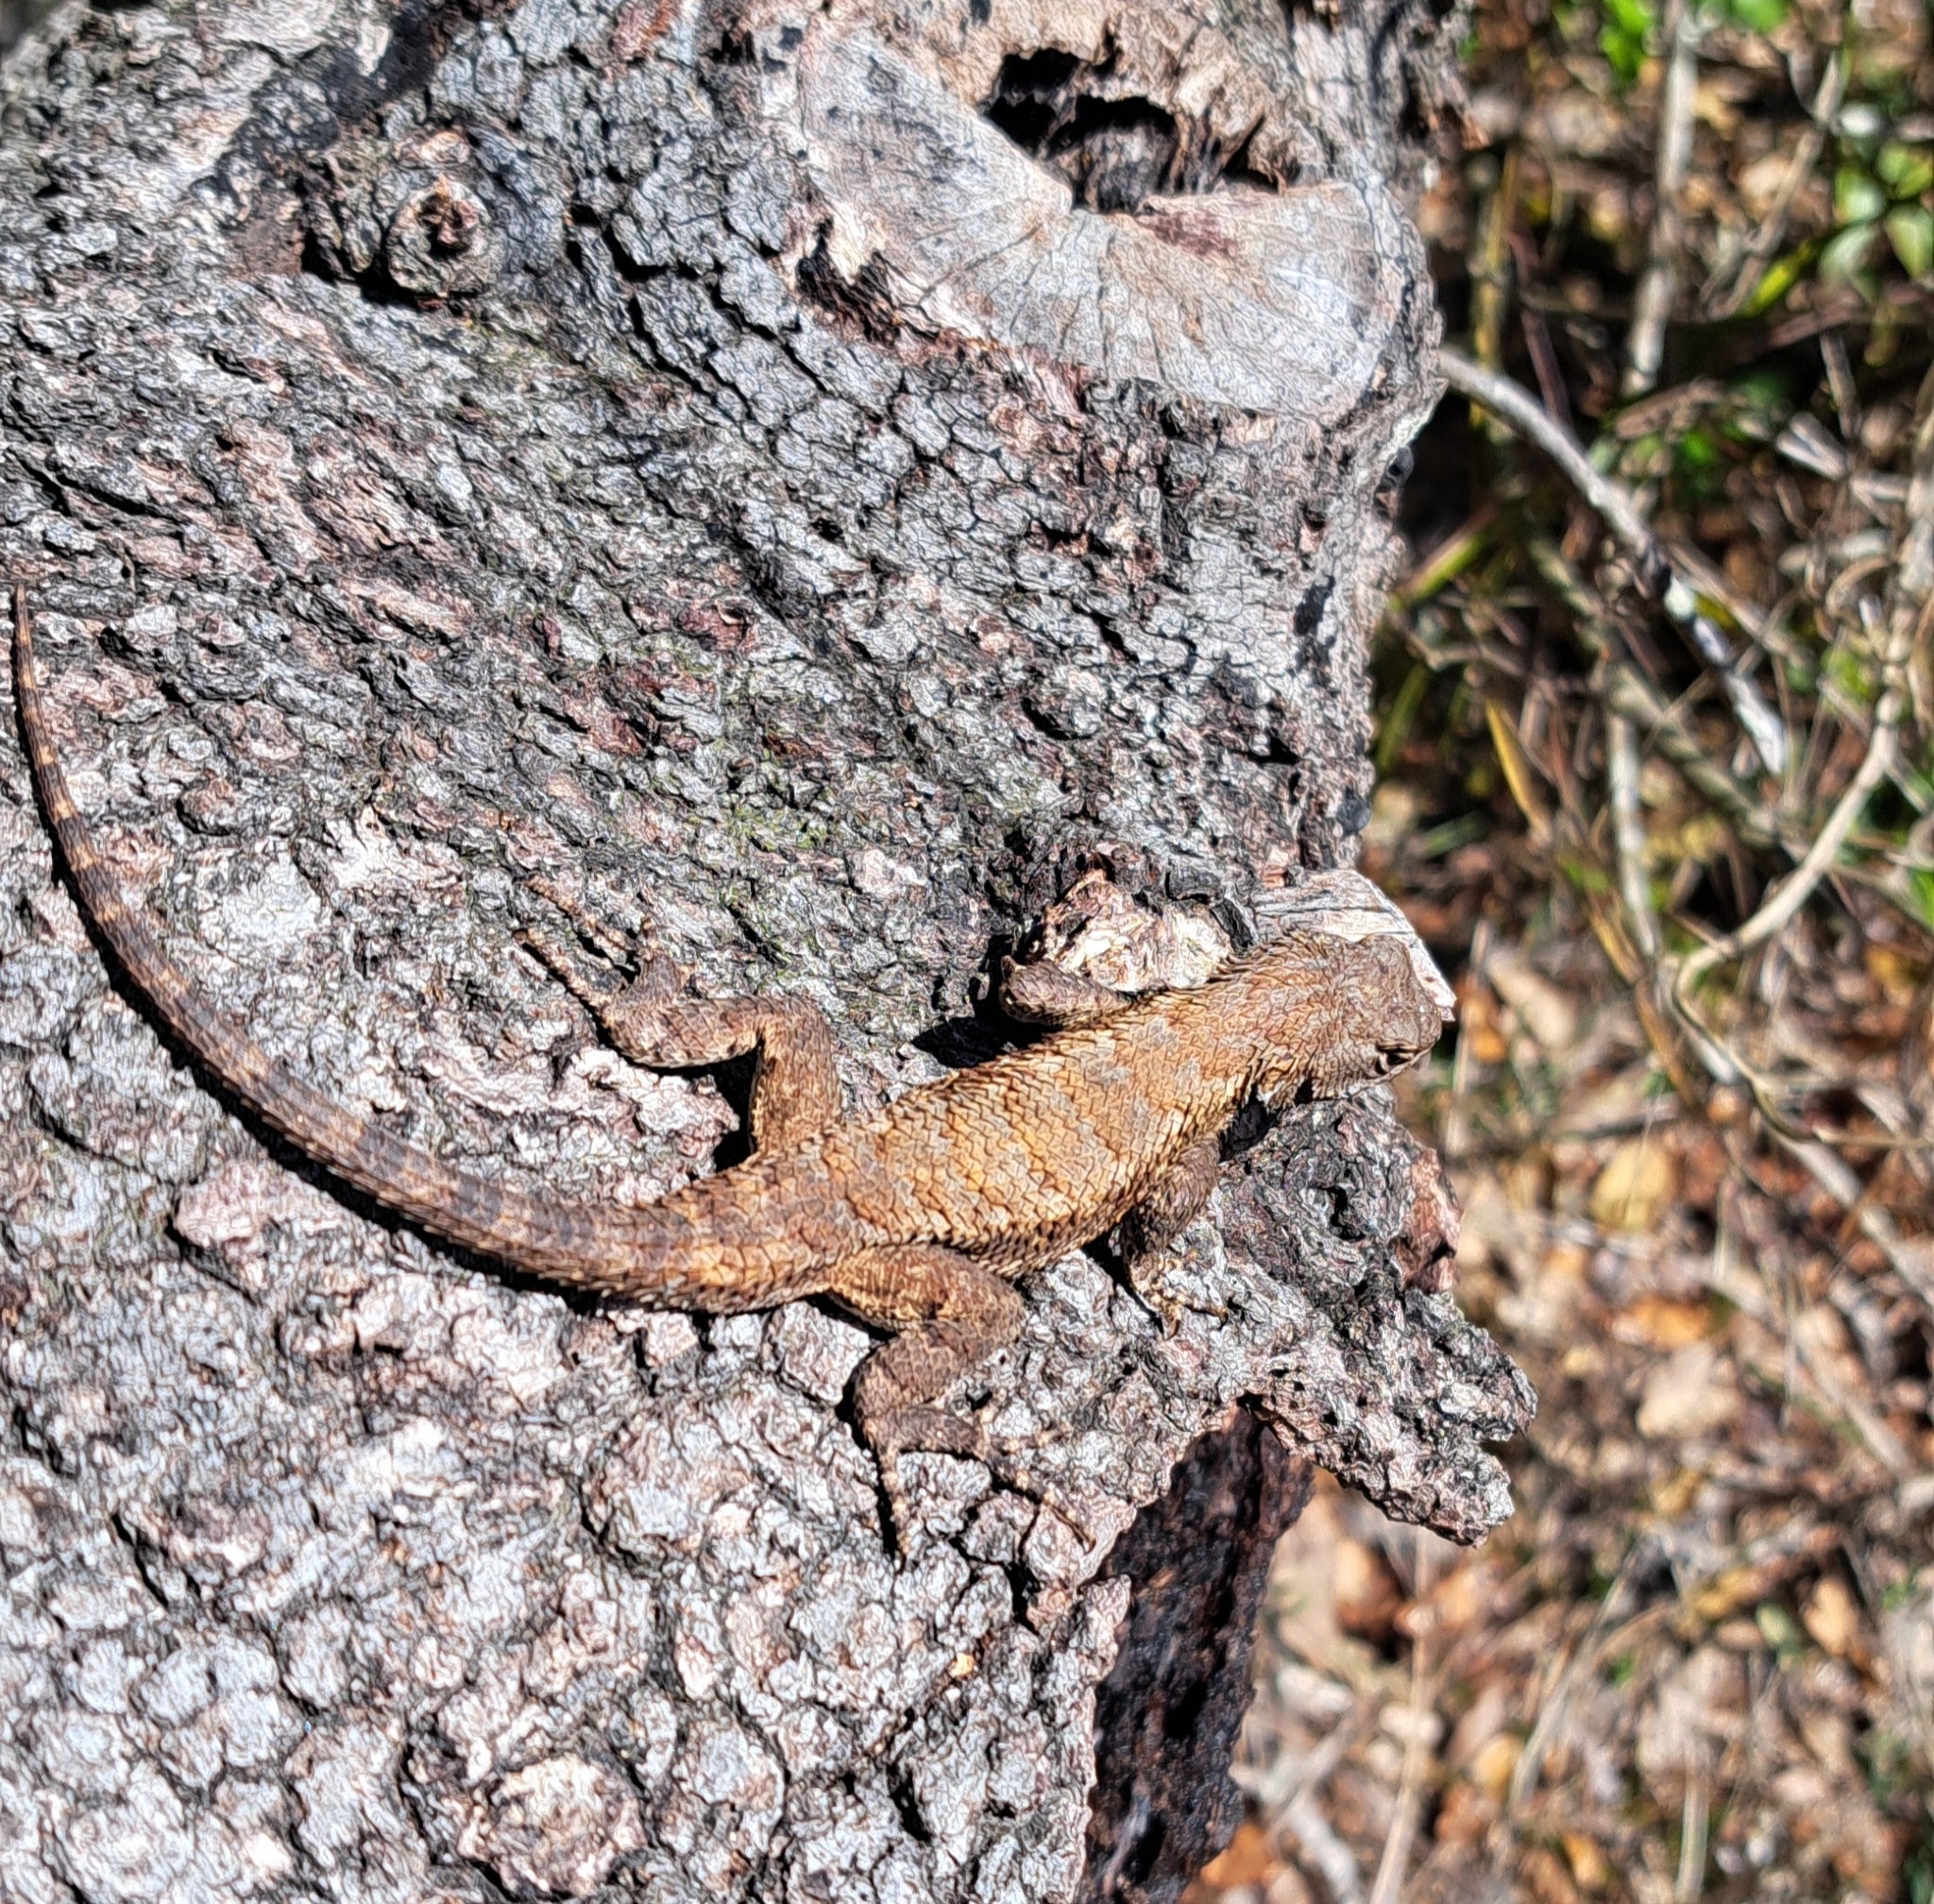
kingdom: Animalia
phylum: Chordata
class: Squamata
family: Phrynosomatidae
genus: Sceloporus
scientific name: Sceloporus undulatus
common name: Eastern fence lizard
